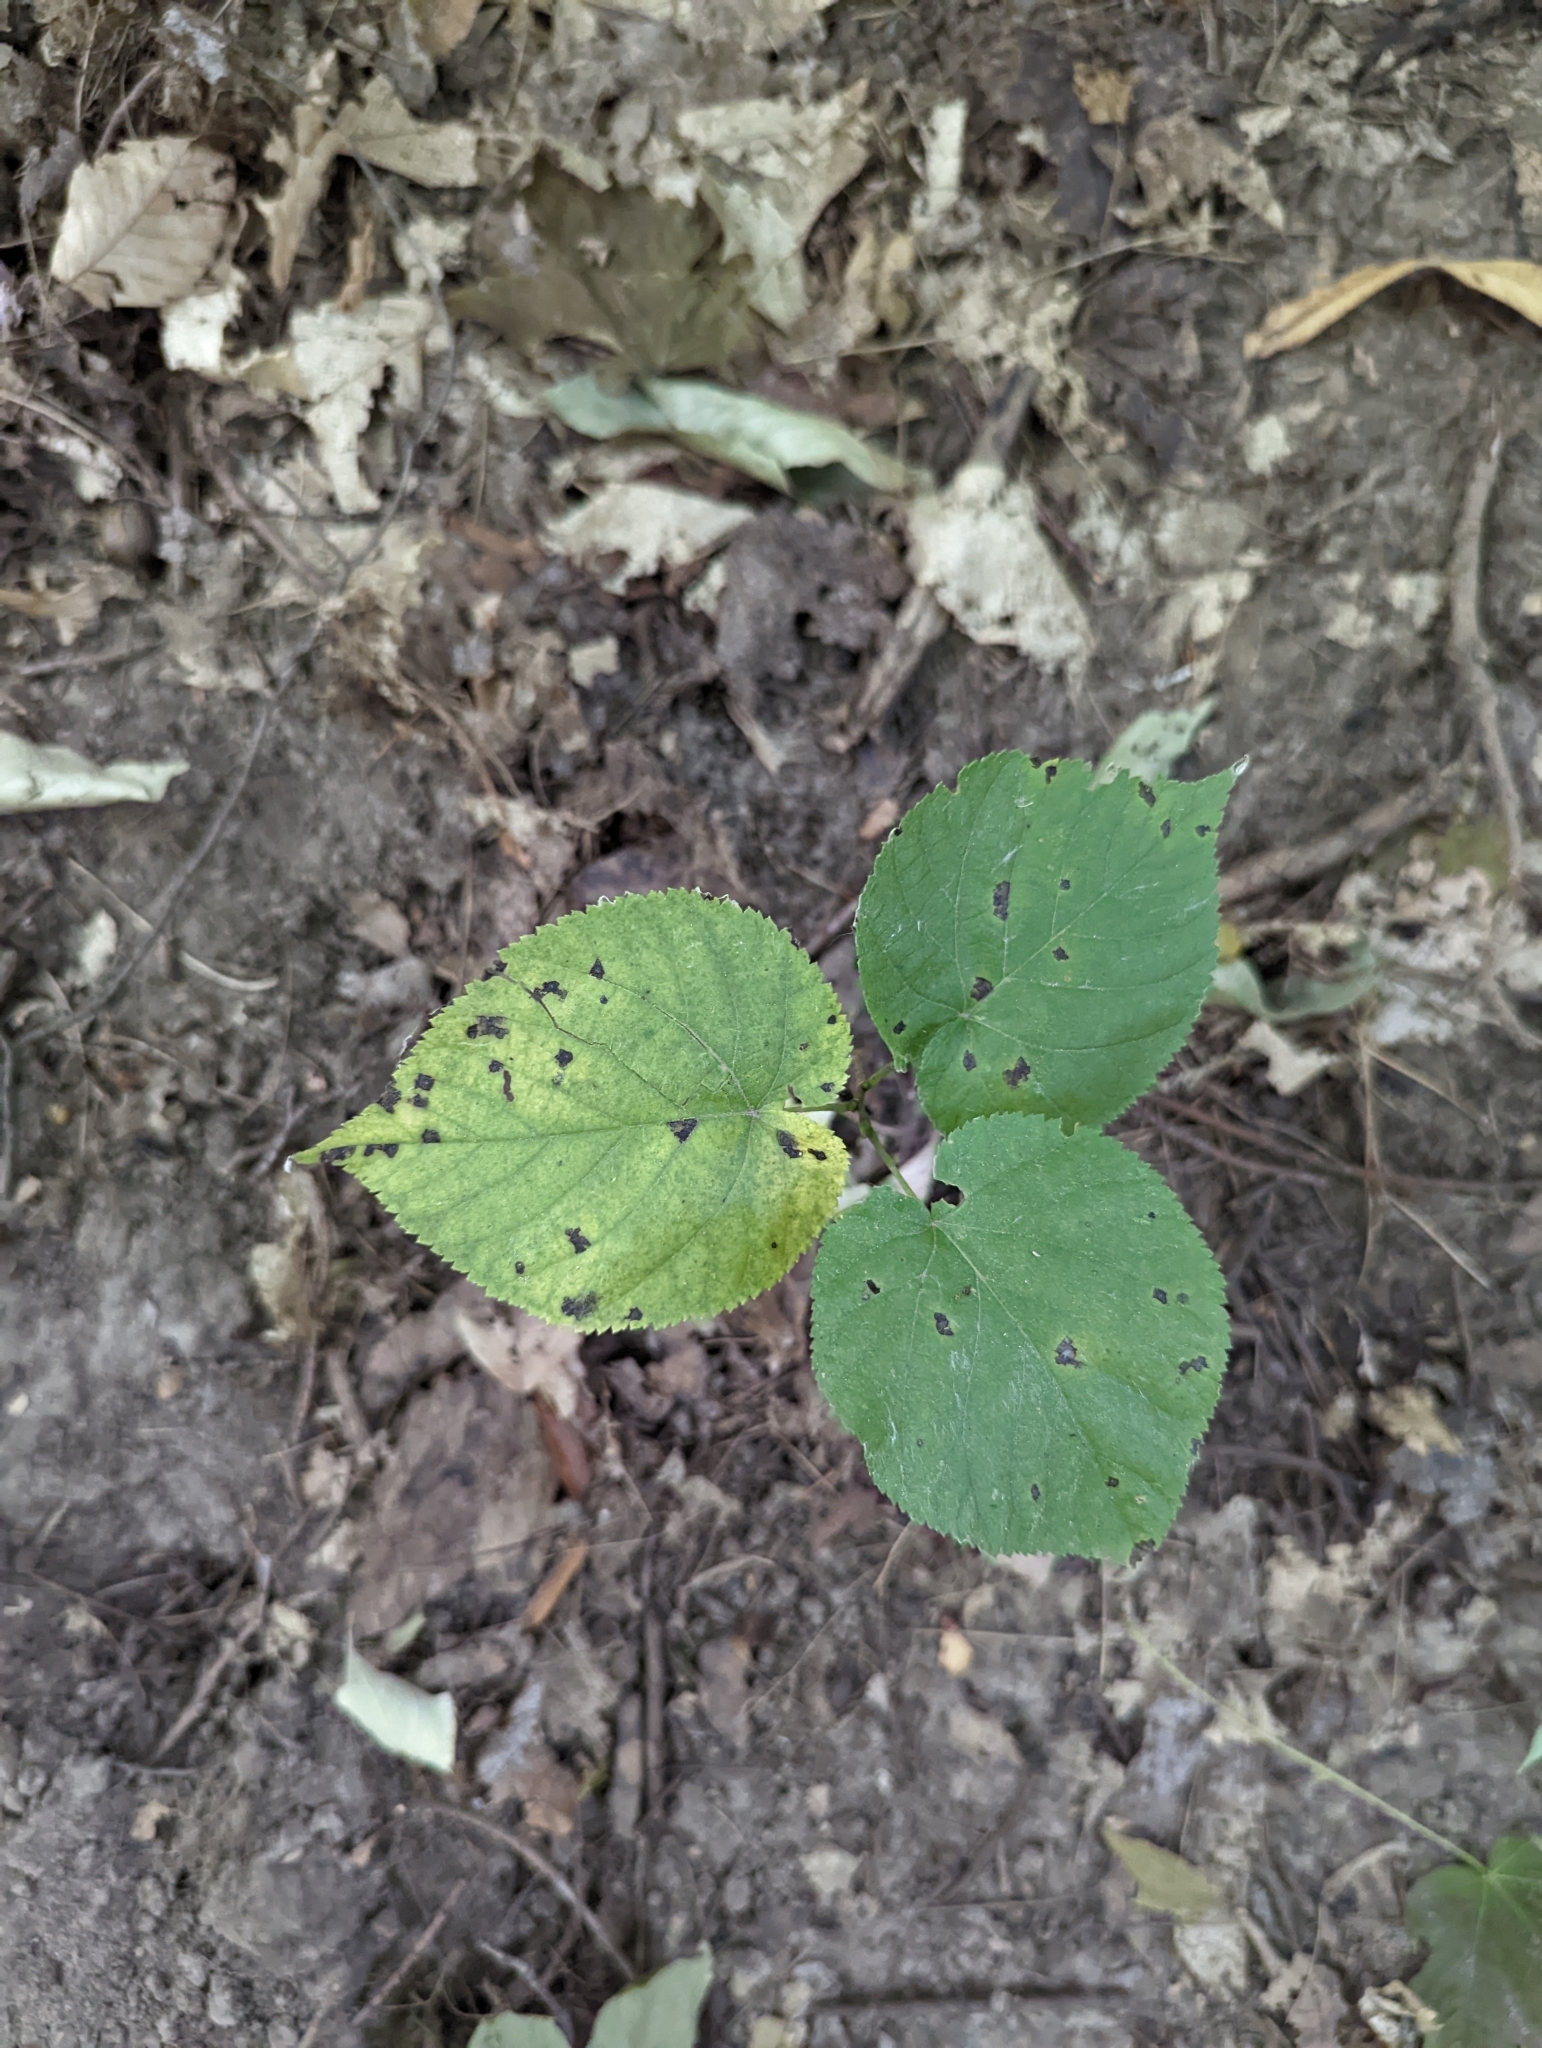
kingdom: Plantae
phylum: Tracheophyta
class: Magnoliopsida
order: Malvales
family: Malvaceae
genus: Tilia
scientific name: Tilia americana
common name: Basswood
